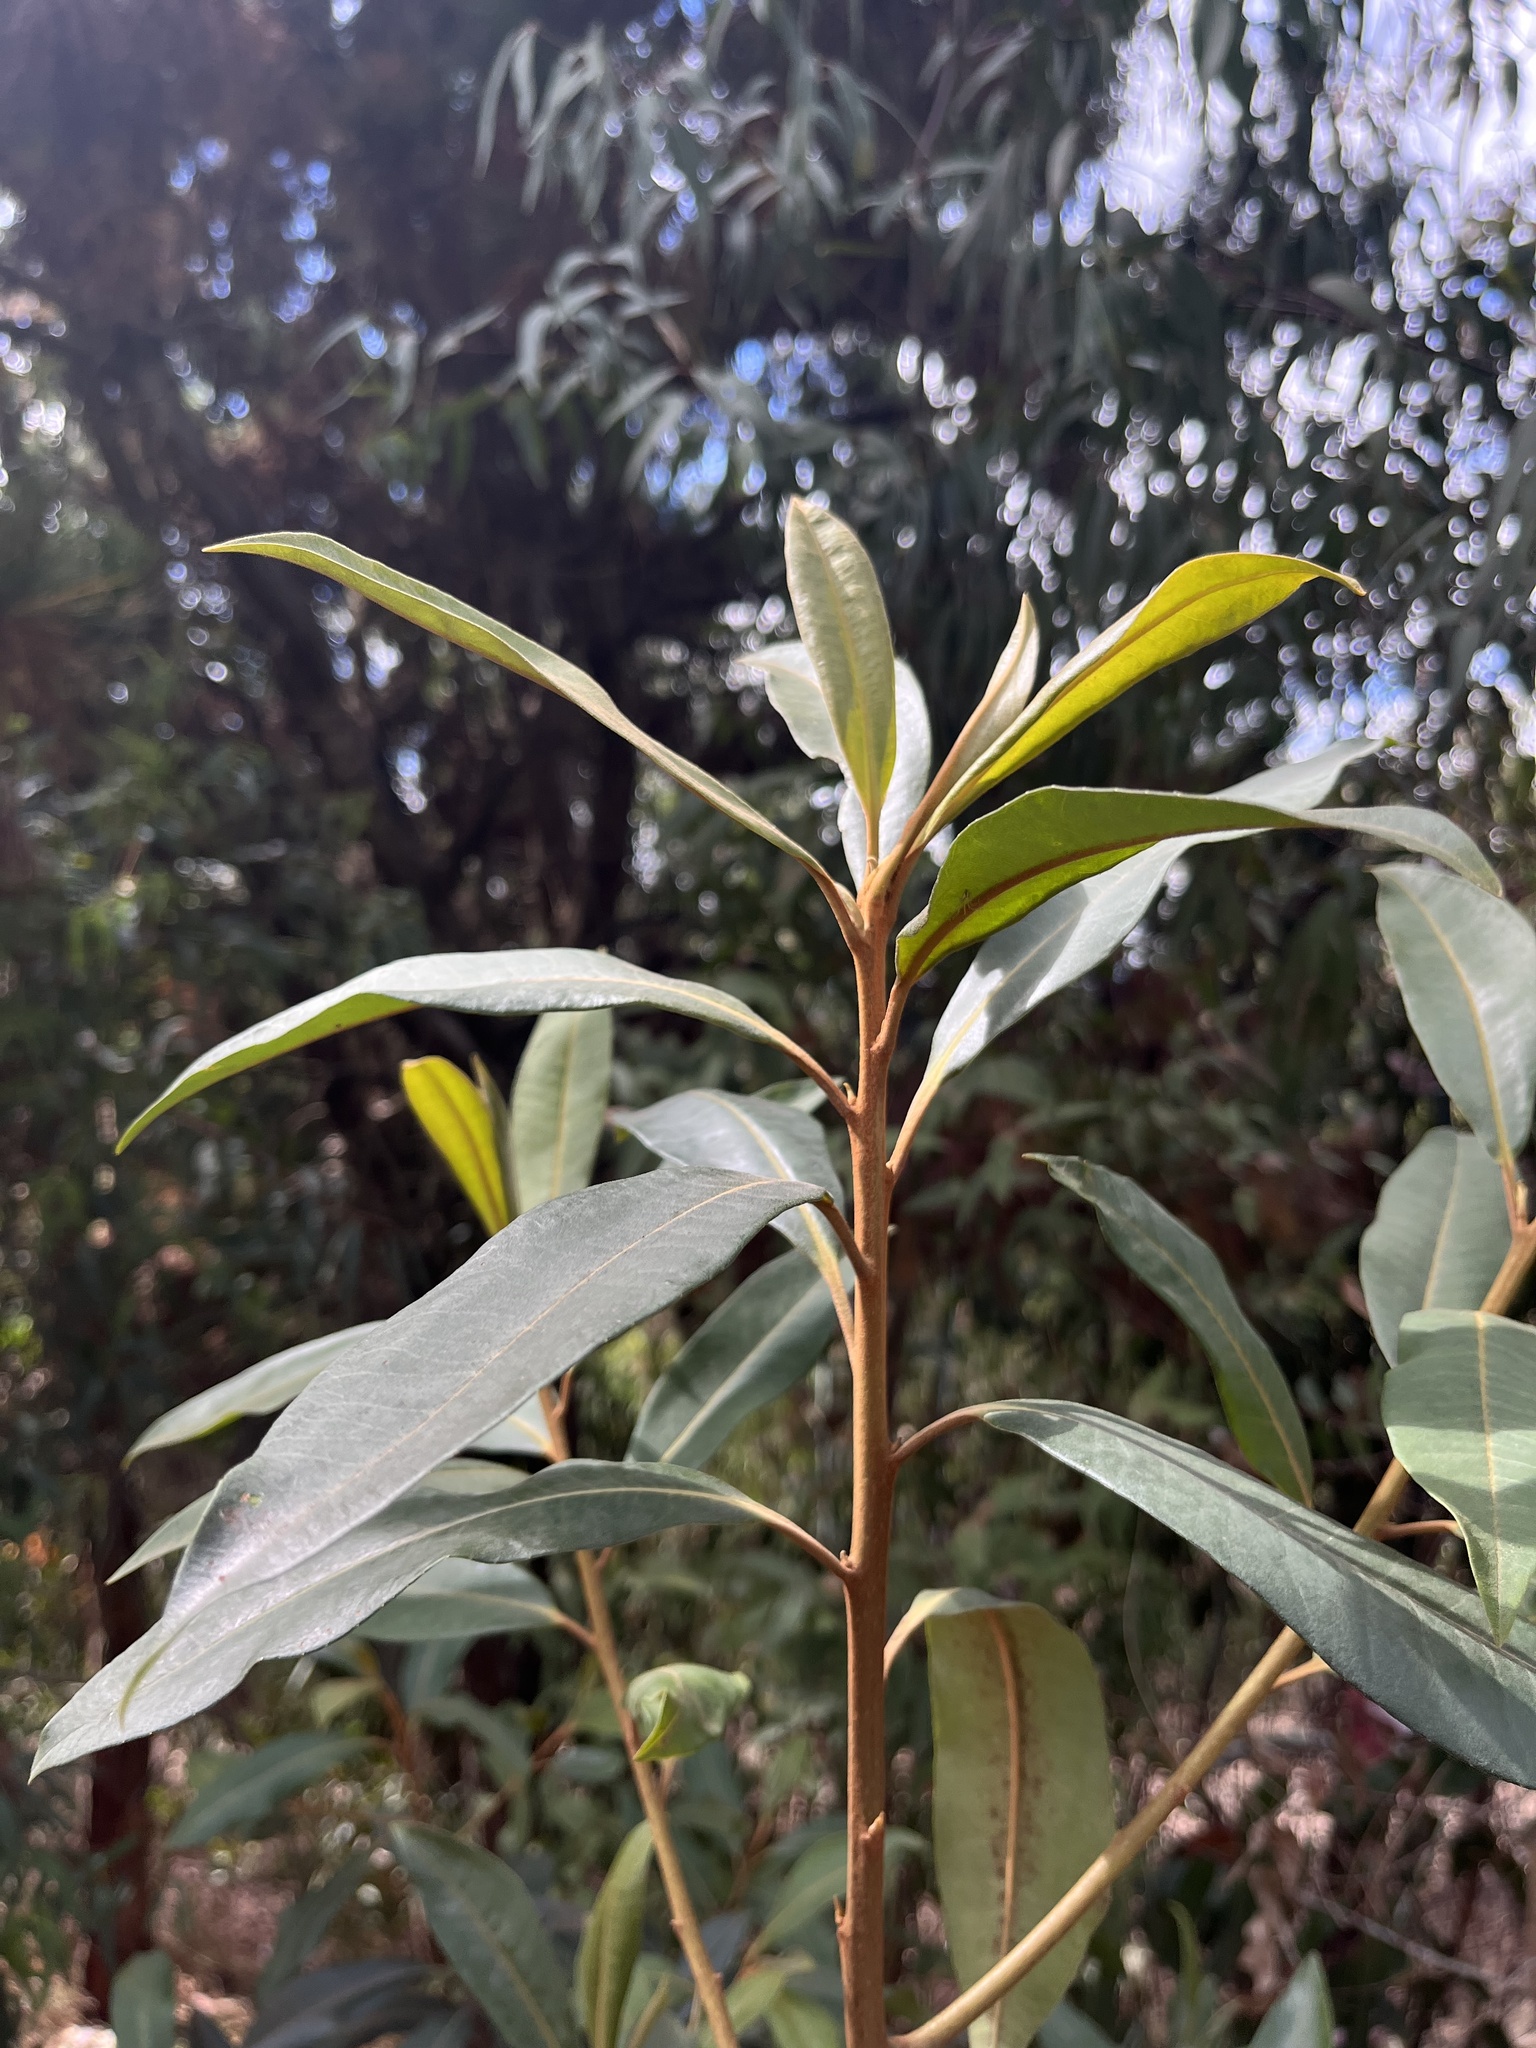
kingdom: Plantae
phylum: Tracheophyta
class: Magnoliopsida
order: Ericales
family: Primulaceae
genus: Myrsine
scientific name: Myrsine coriacea
